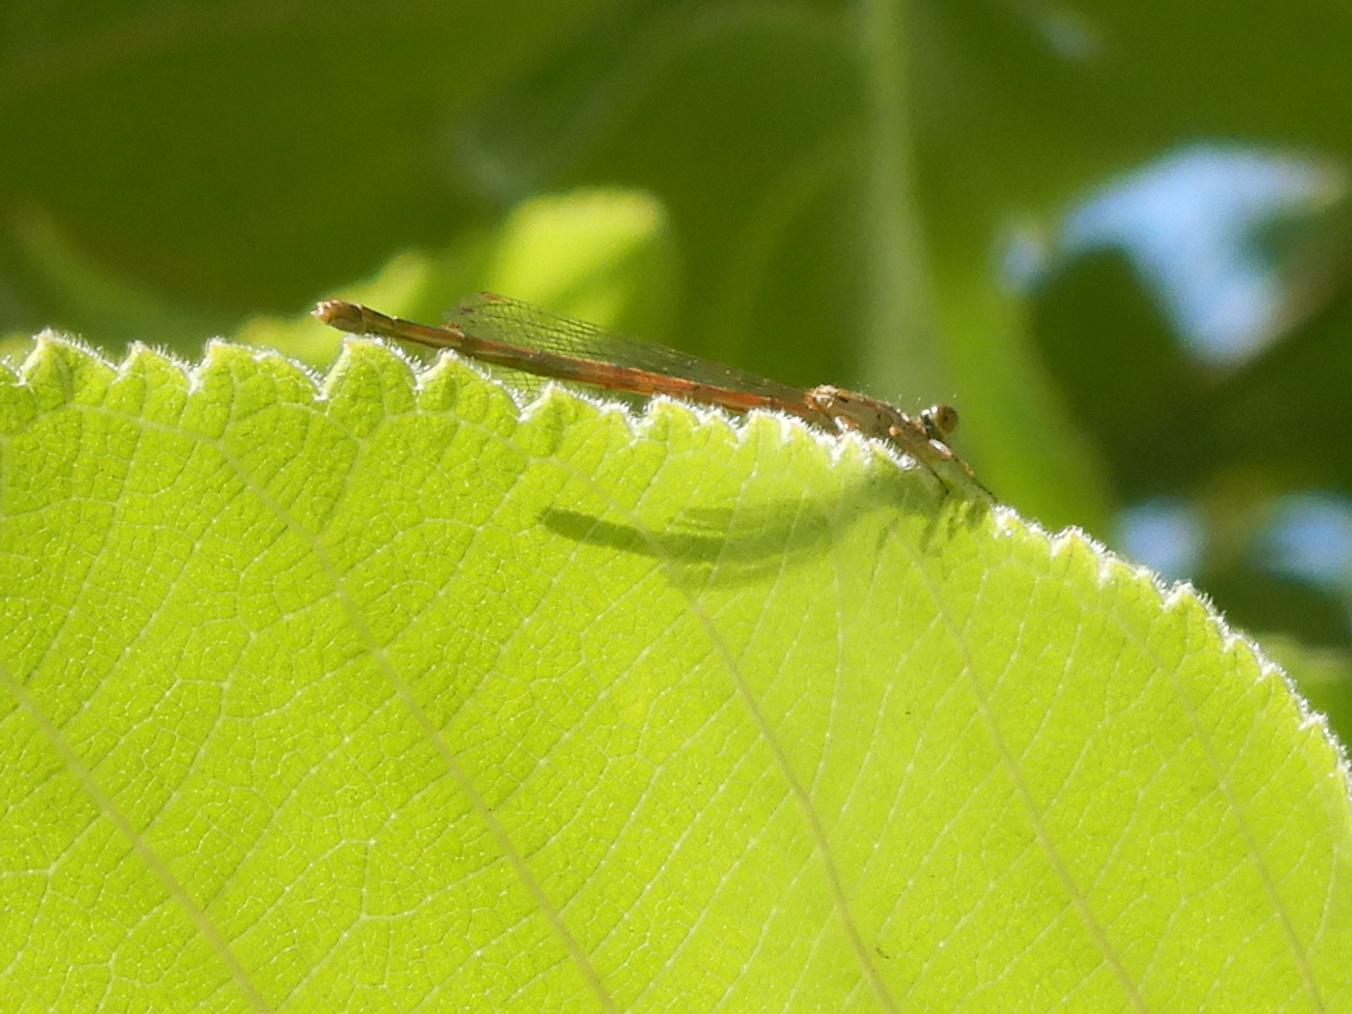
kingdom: Animalia
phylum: Arthropoda
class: Insecta
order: Odonata
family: Coenagrionidae
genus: Xanthocnemis
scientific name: Xanthocnemis zealandica
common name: Common redcoat damselfly
